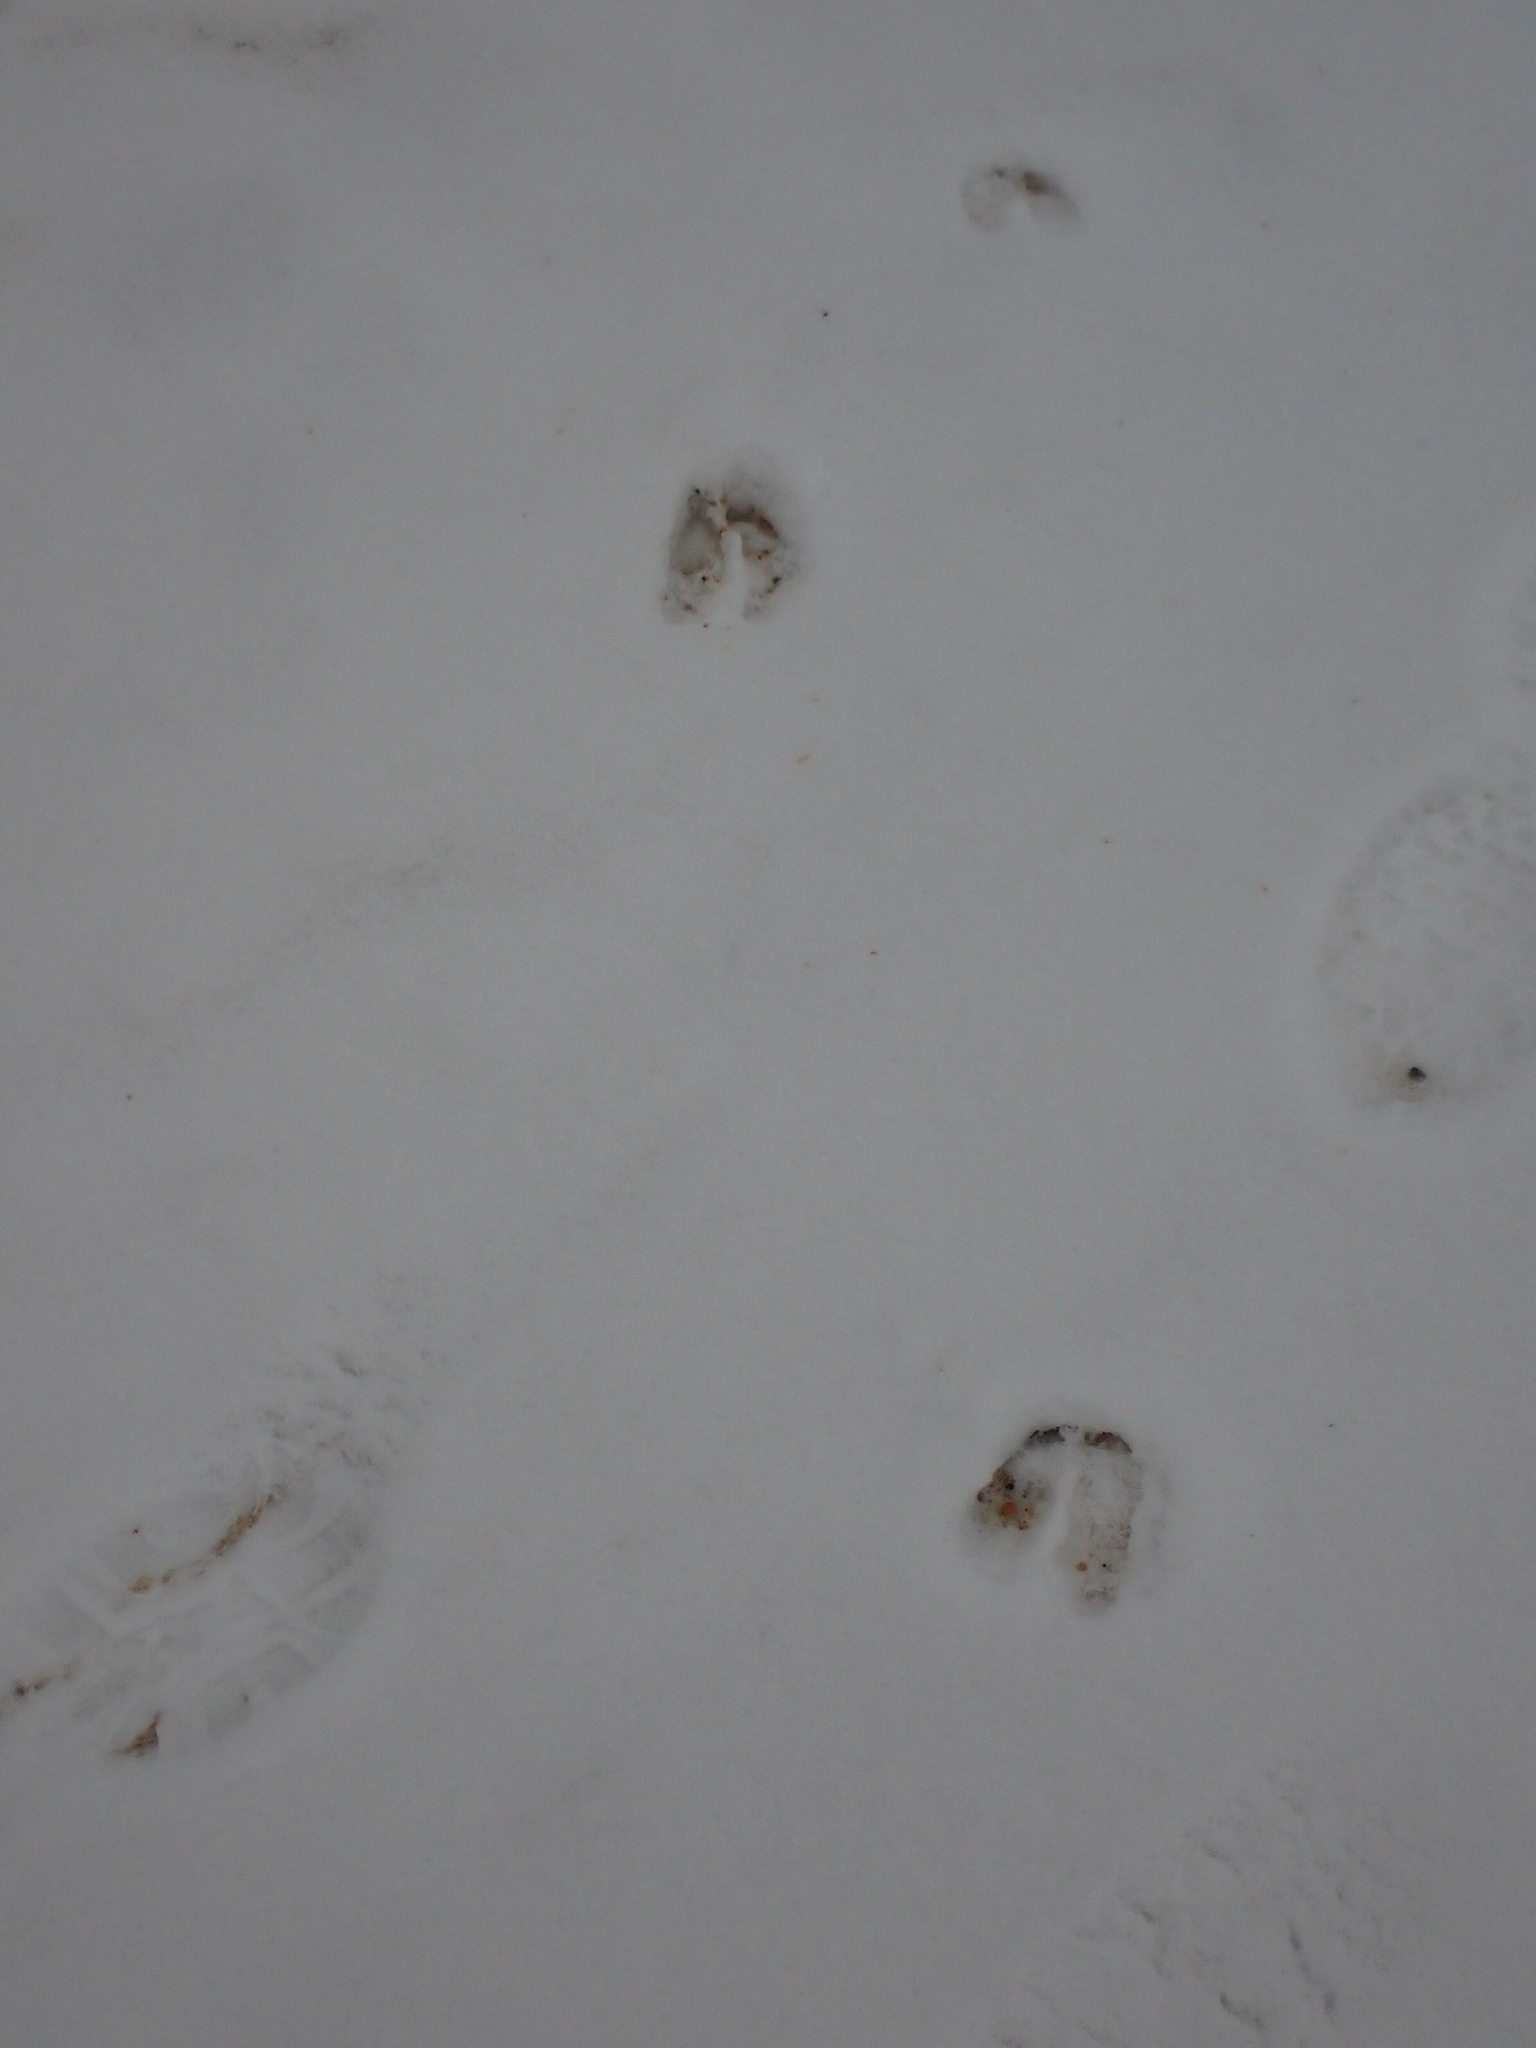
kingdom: Animalia
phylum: Chordata
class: Mammalia
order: Artiodactyla
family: Cervidae
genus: Odocoileus
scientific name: Odocoileus virginianus
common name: White-tailed deer
